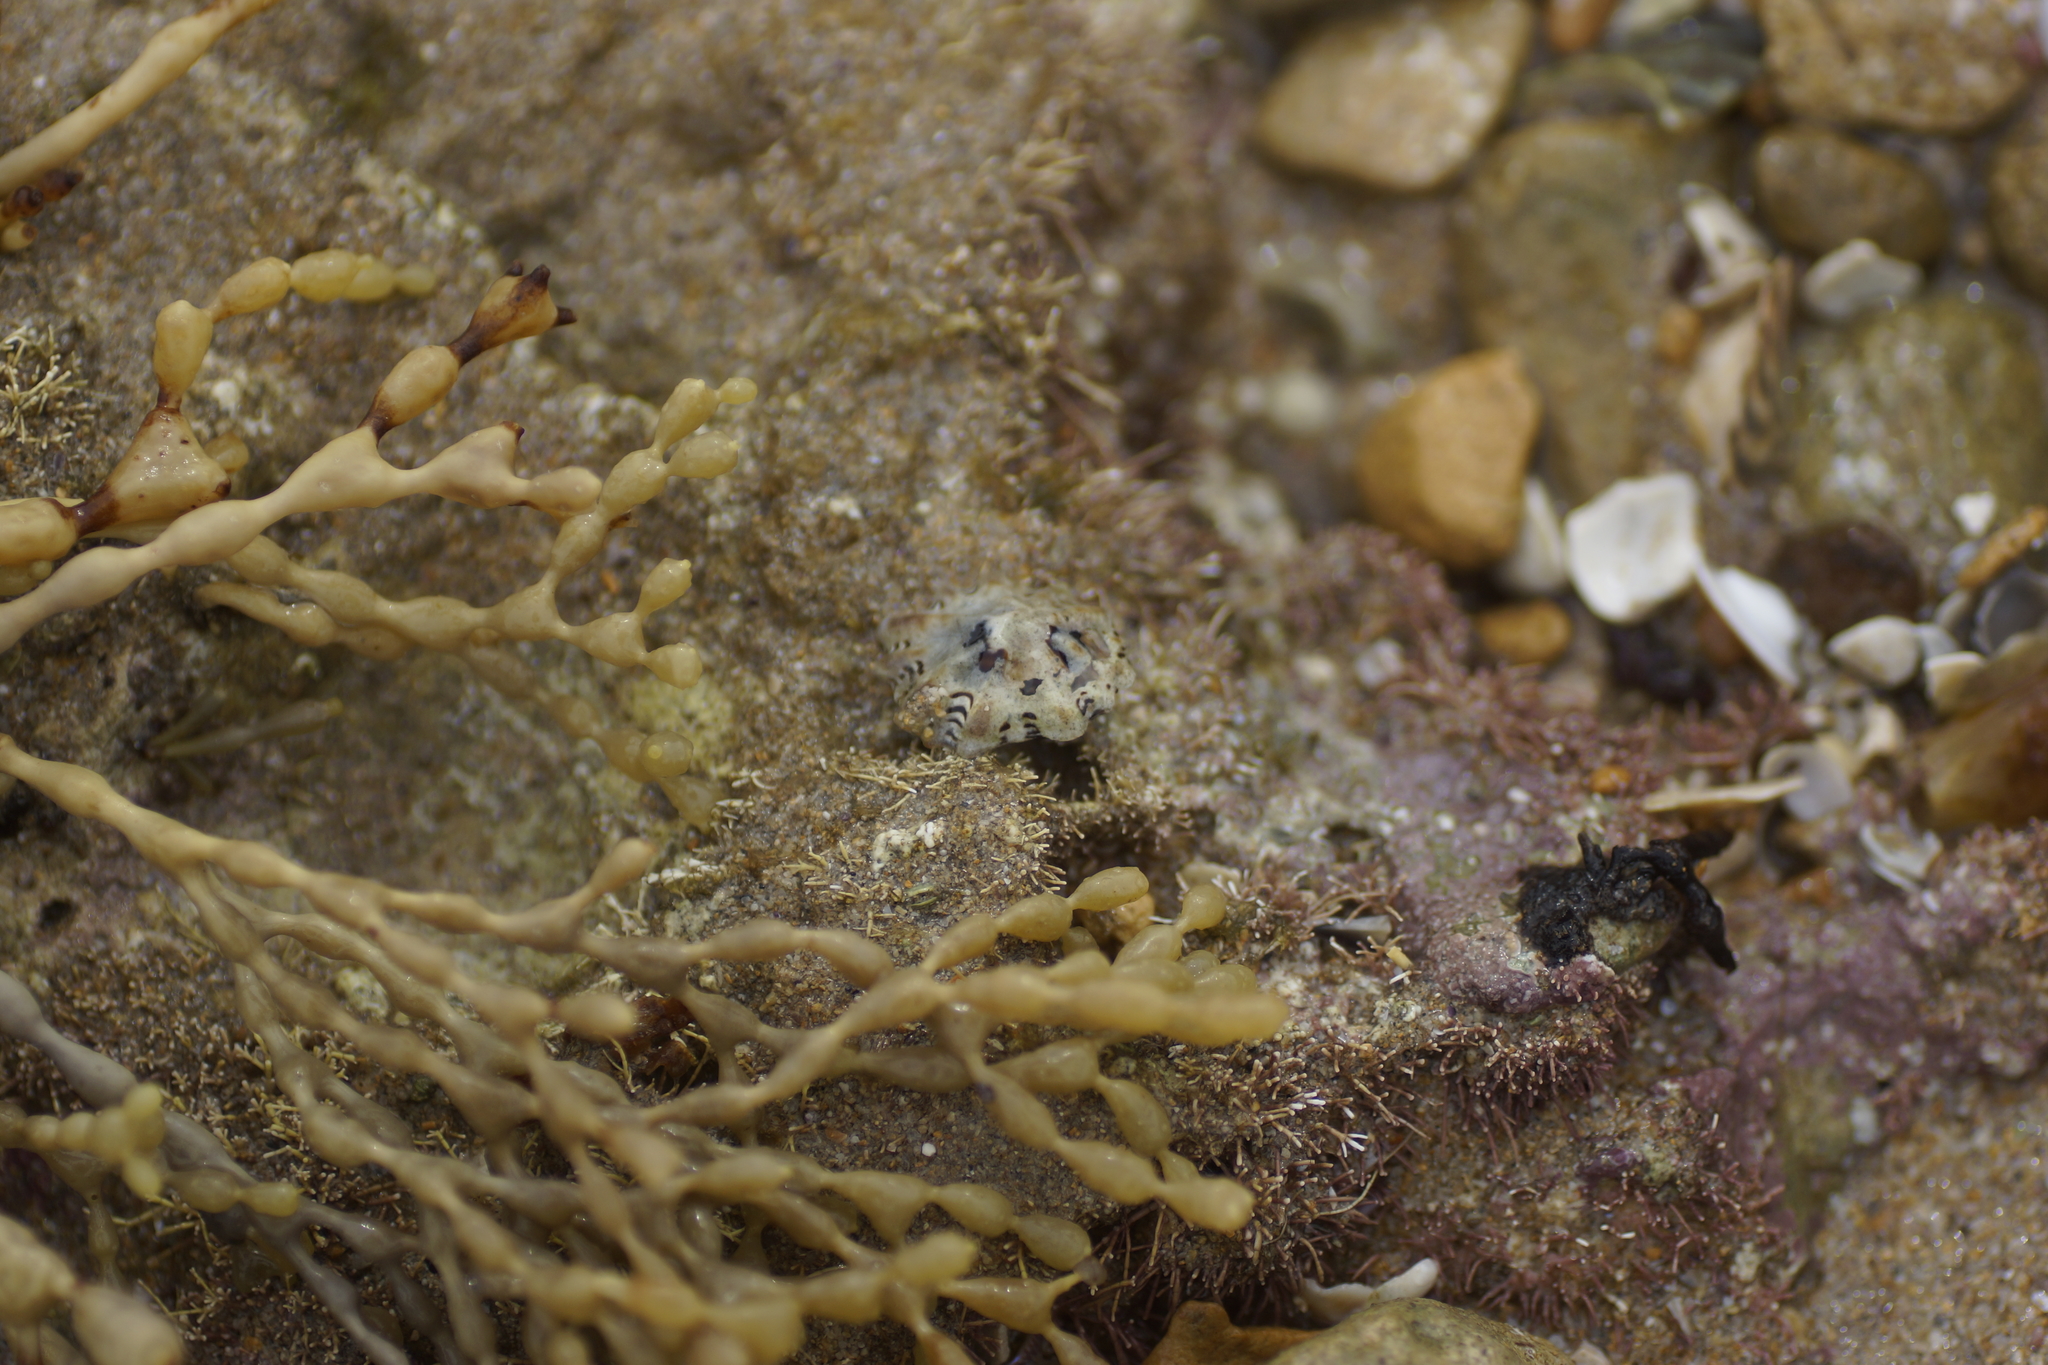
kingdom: Animalia
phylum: Mollusca
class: Gastropoda
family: Lottiidae
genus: Patelloida
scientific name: Patelloida alticostata
